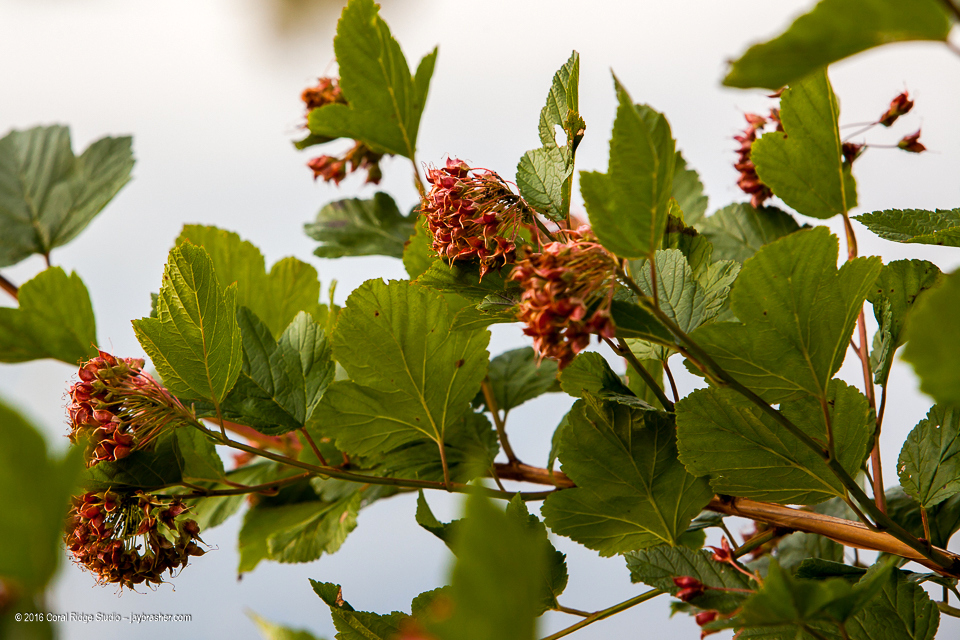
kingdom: Plantae
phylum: Tracheophyta
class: Magnoliopsida
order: Rosales
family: Rosaceae
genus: Physocarpus
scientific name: Physocarpus opulifolius
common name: Ninebark
